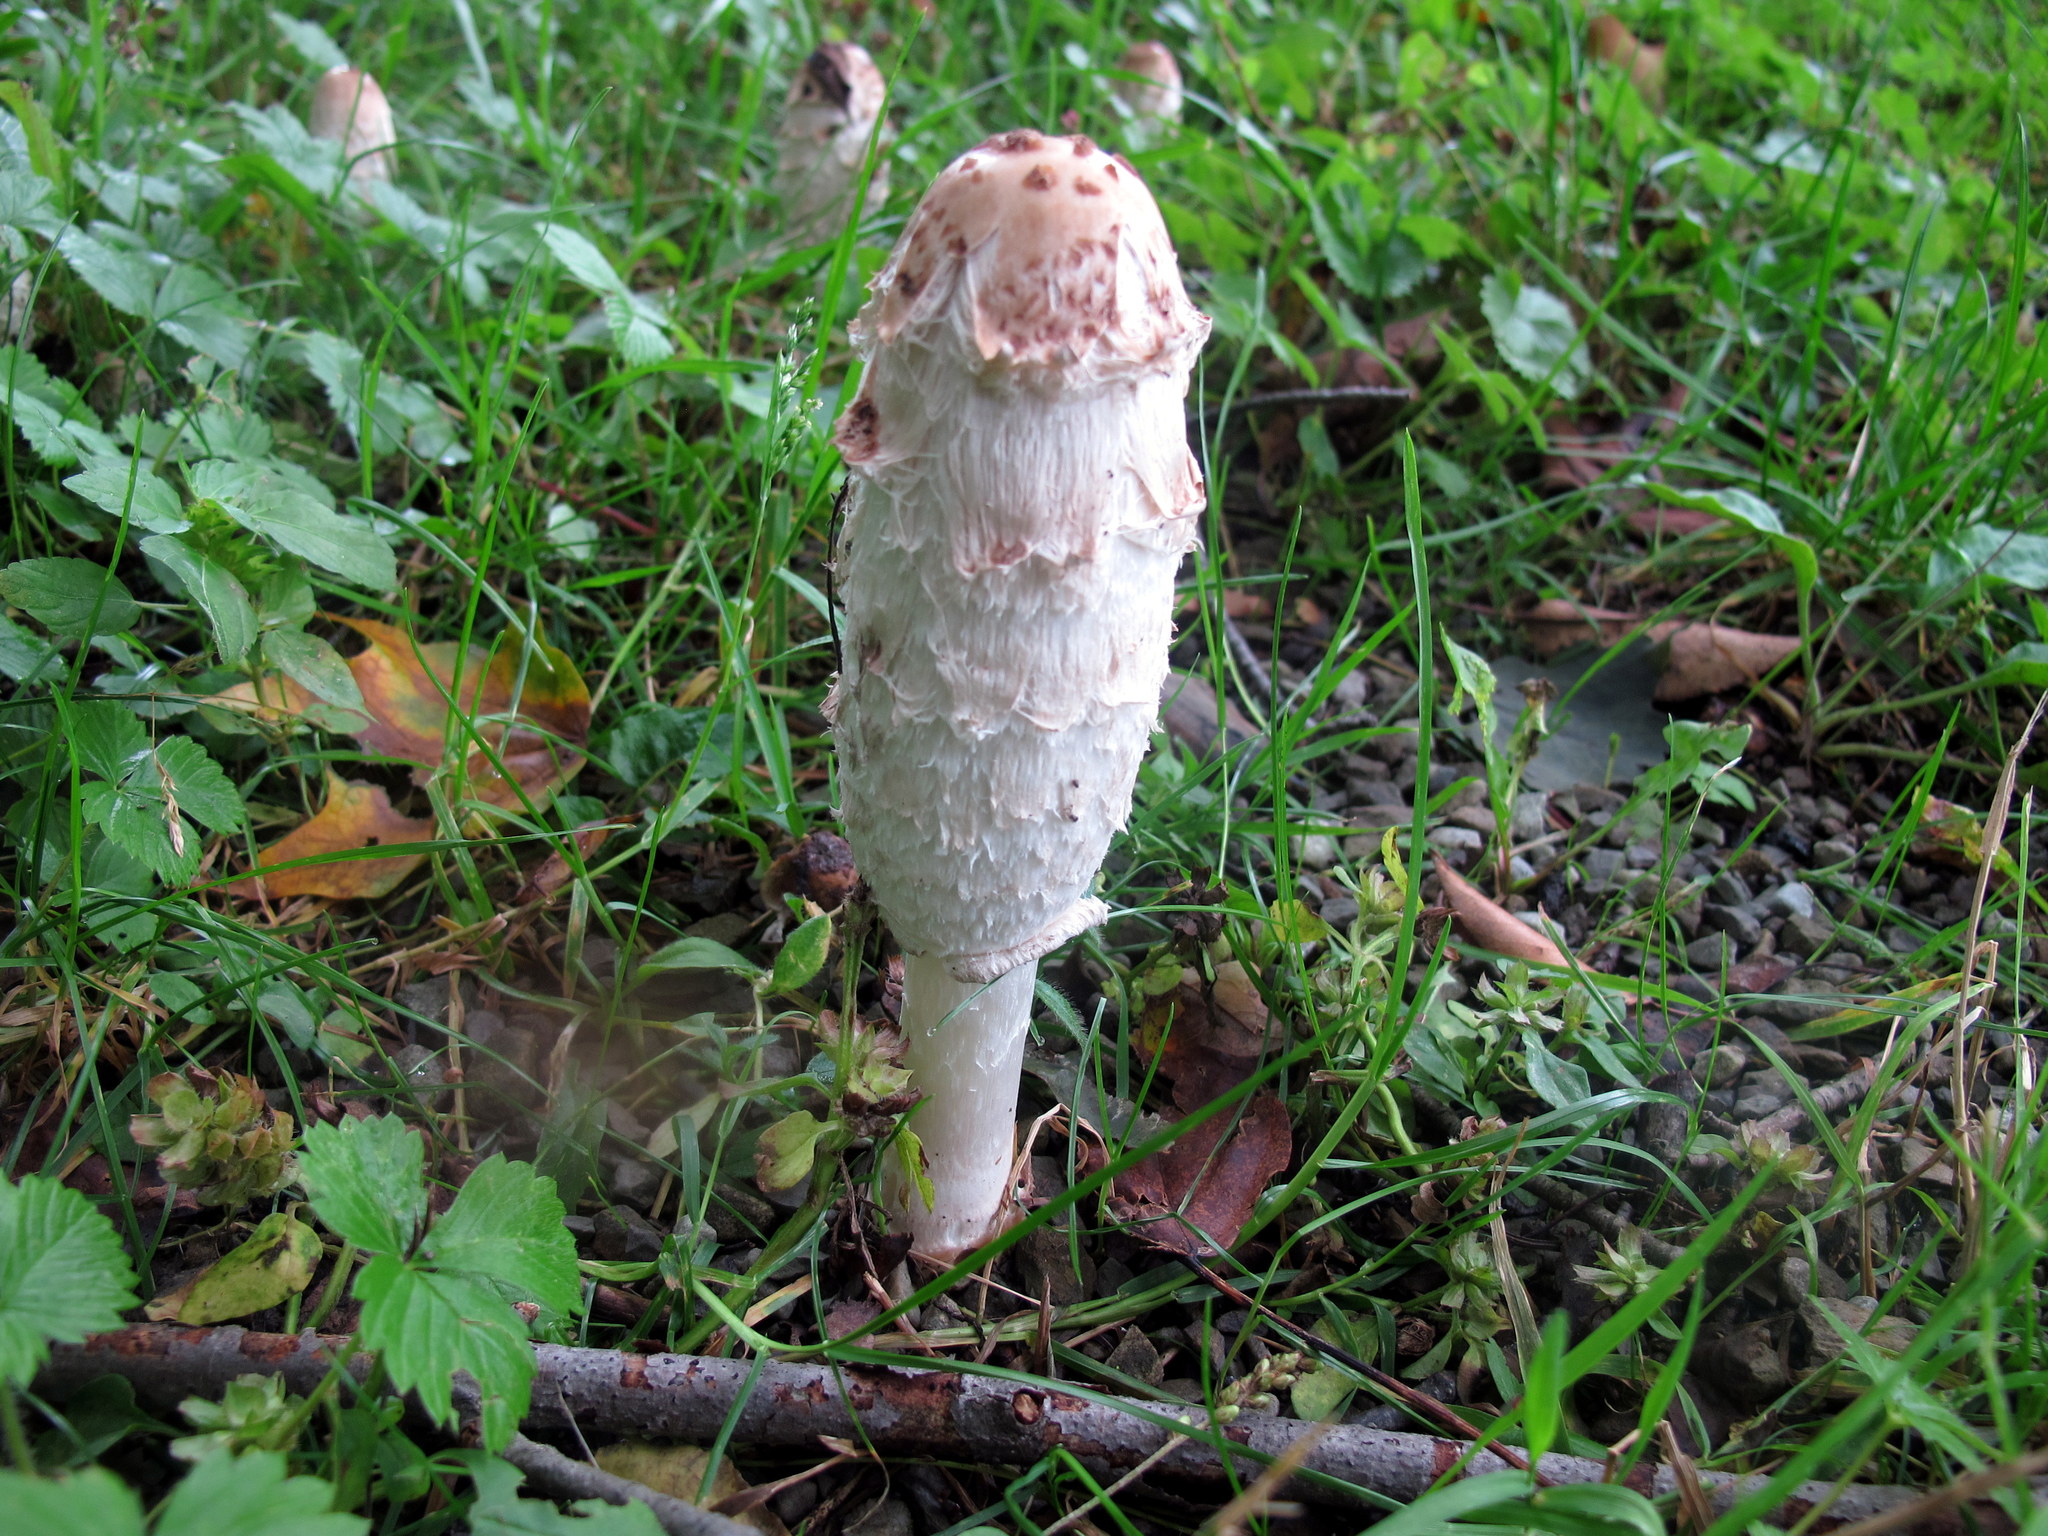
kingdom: Fungi
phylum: Basidiomycota
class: Agaricomycetes
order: Agaricales
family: Agaricaceae
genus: Coprinus
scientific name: Coprinus comatus
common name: Lawyer's wig
